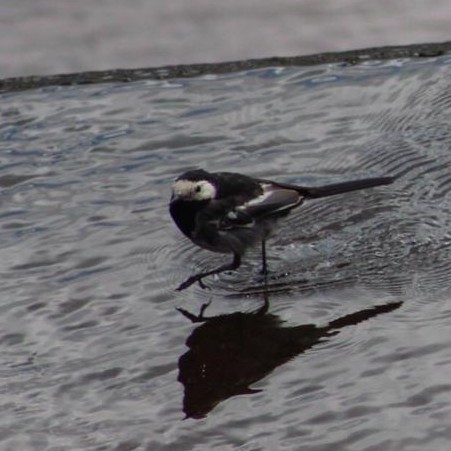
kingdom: Animalia
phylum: Chordata
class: Aves
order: Passeriformes
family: Motacillidae
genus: Motacilla
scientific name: Motacilla alba
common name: White wagtail
